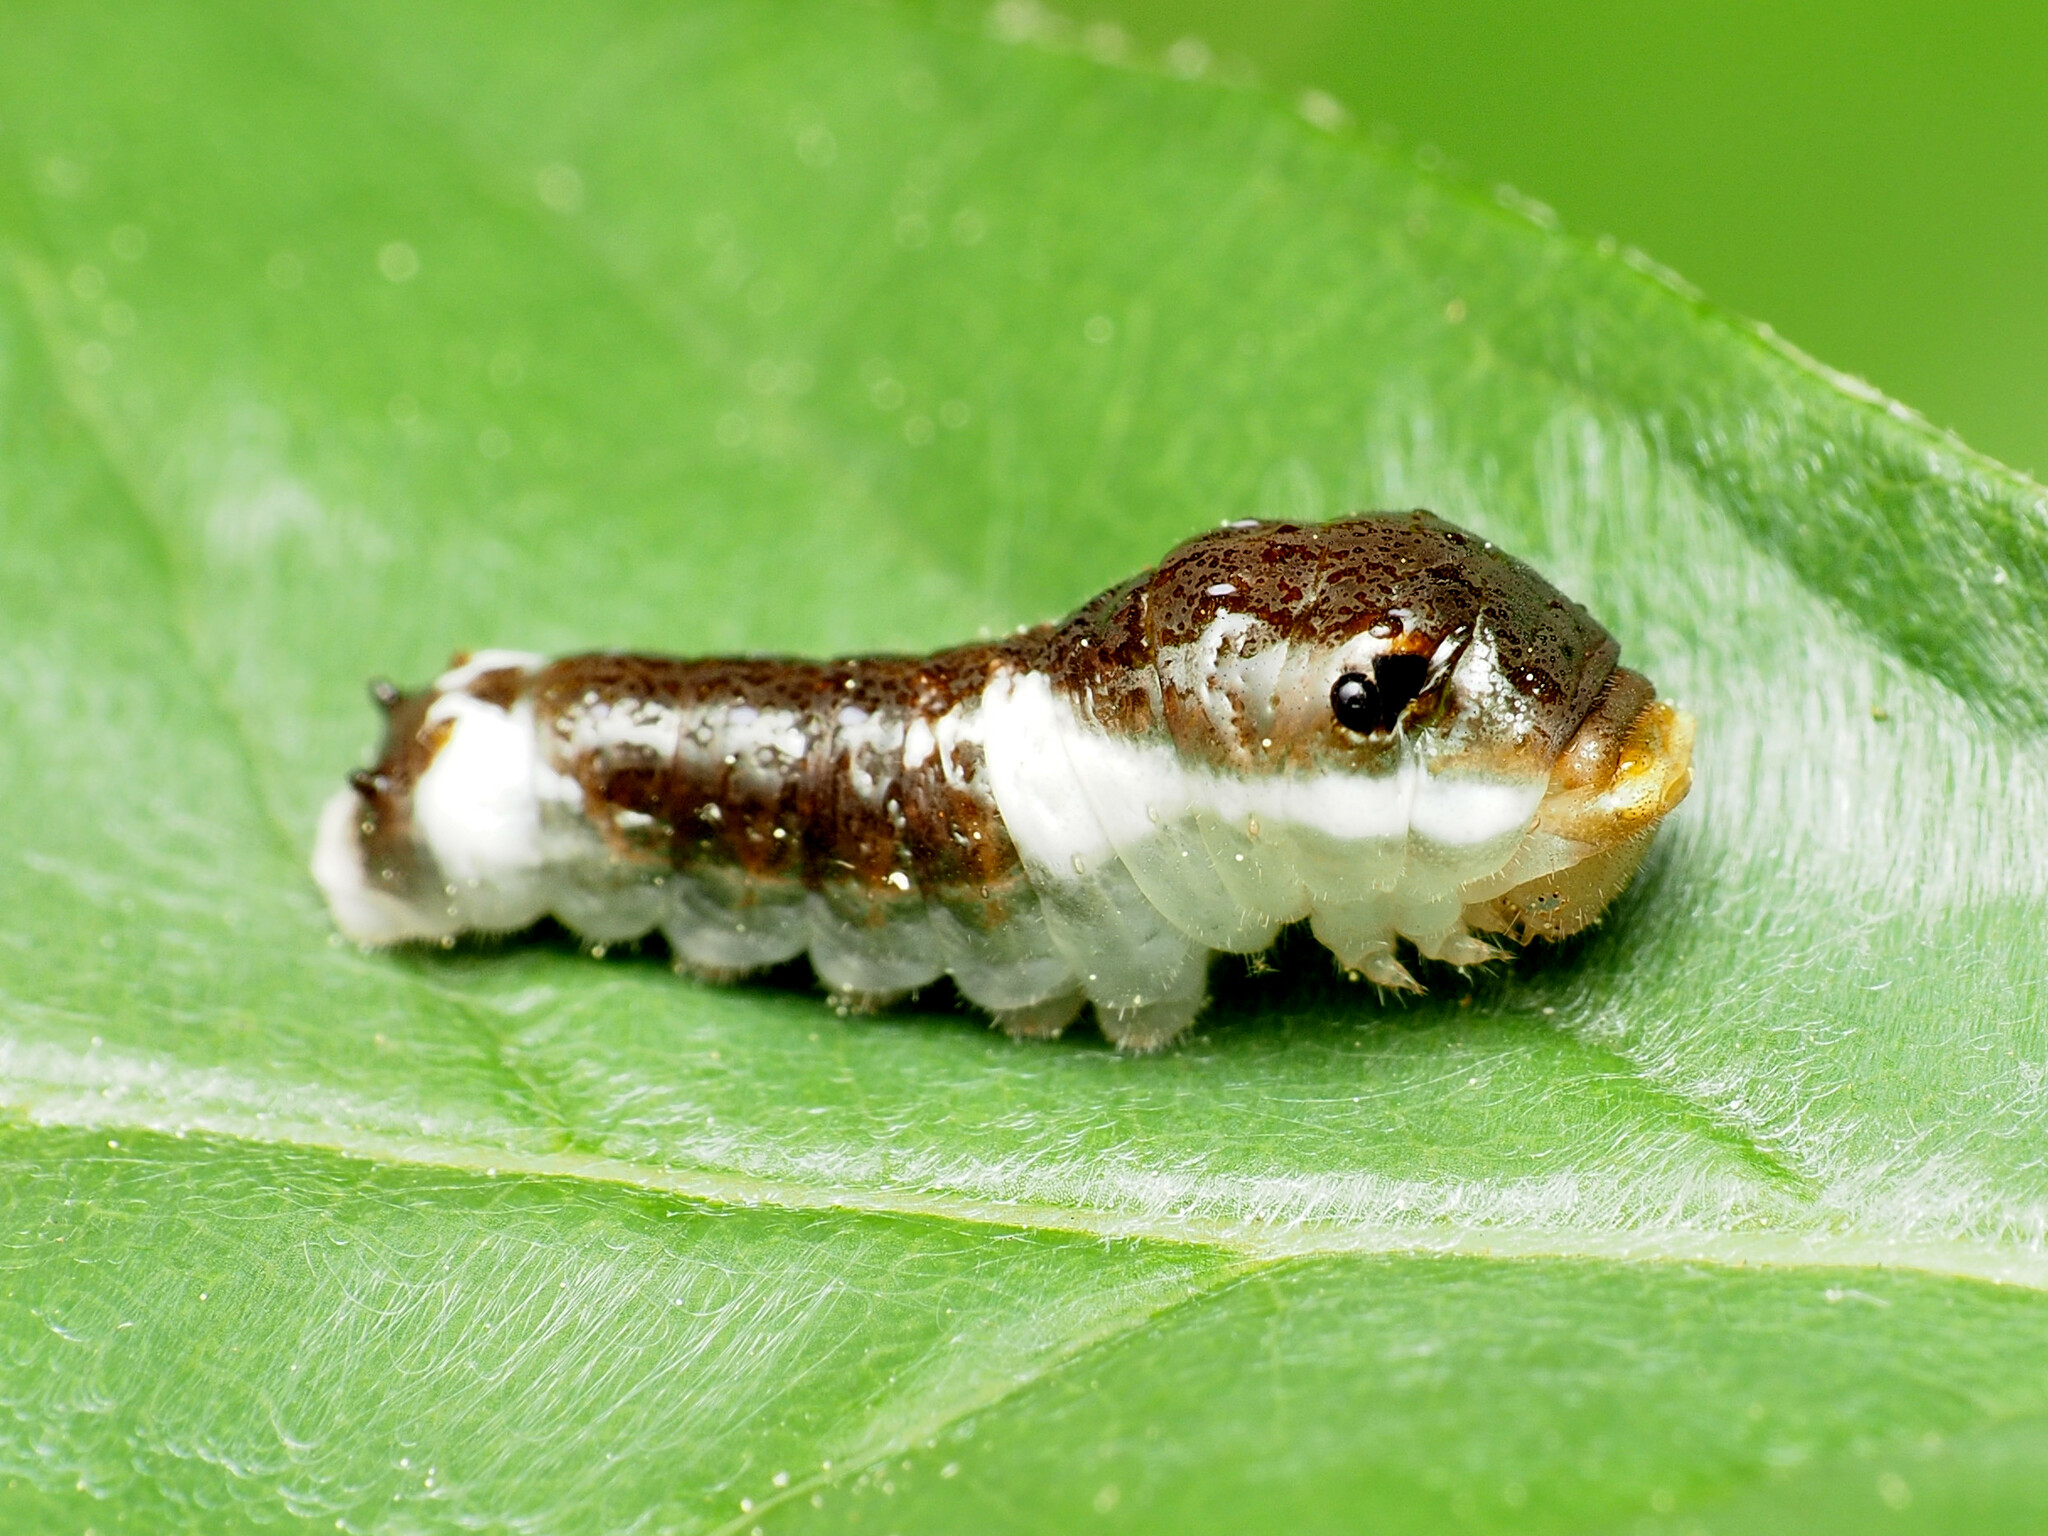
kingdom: Animalia
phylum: Arthropoda
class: Insecta
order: Lepidoptera
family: Papilionidae
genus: Papilio
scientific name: Papilio troilus
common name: Spicebush swallowtail
